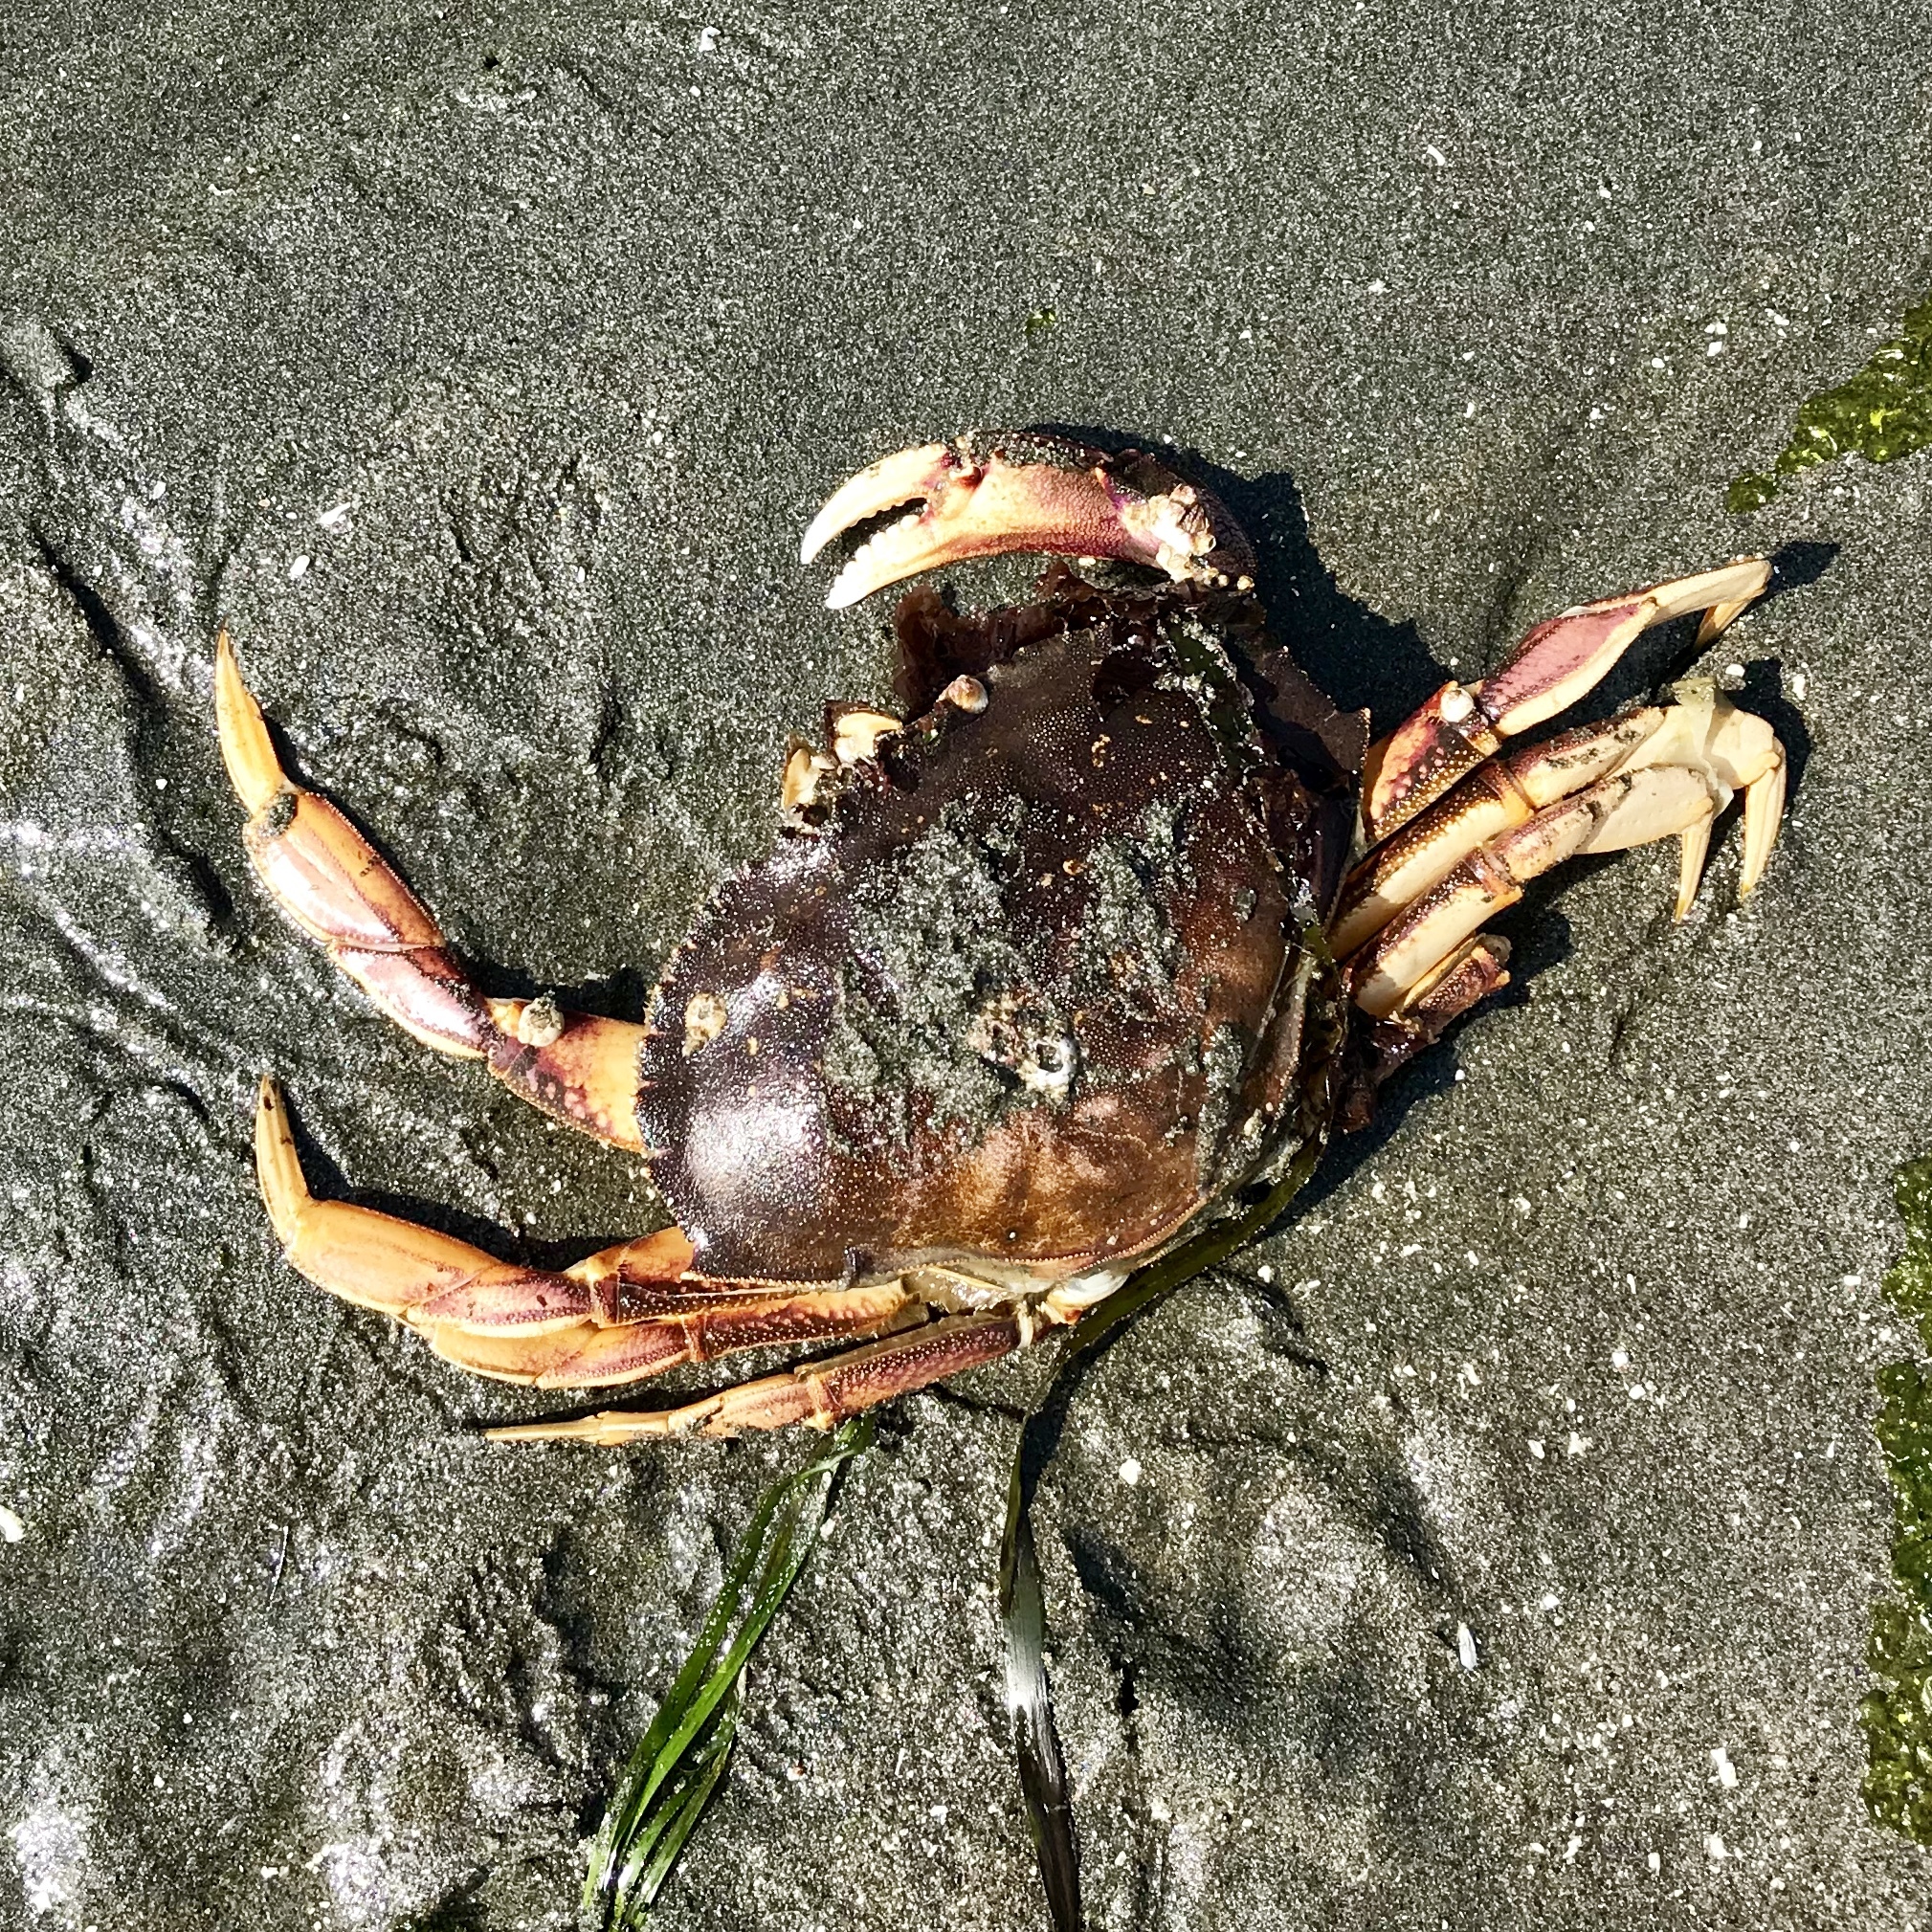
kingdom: Animalia
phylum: Arthropoda
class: Malacostraca
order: Decapoda
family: Cancridae
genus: Metacarcinus
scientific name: Metacarcinus magister
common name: Californian crab
